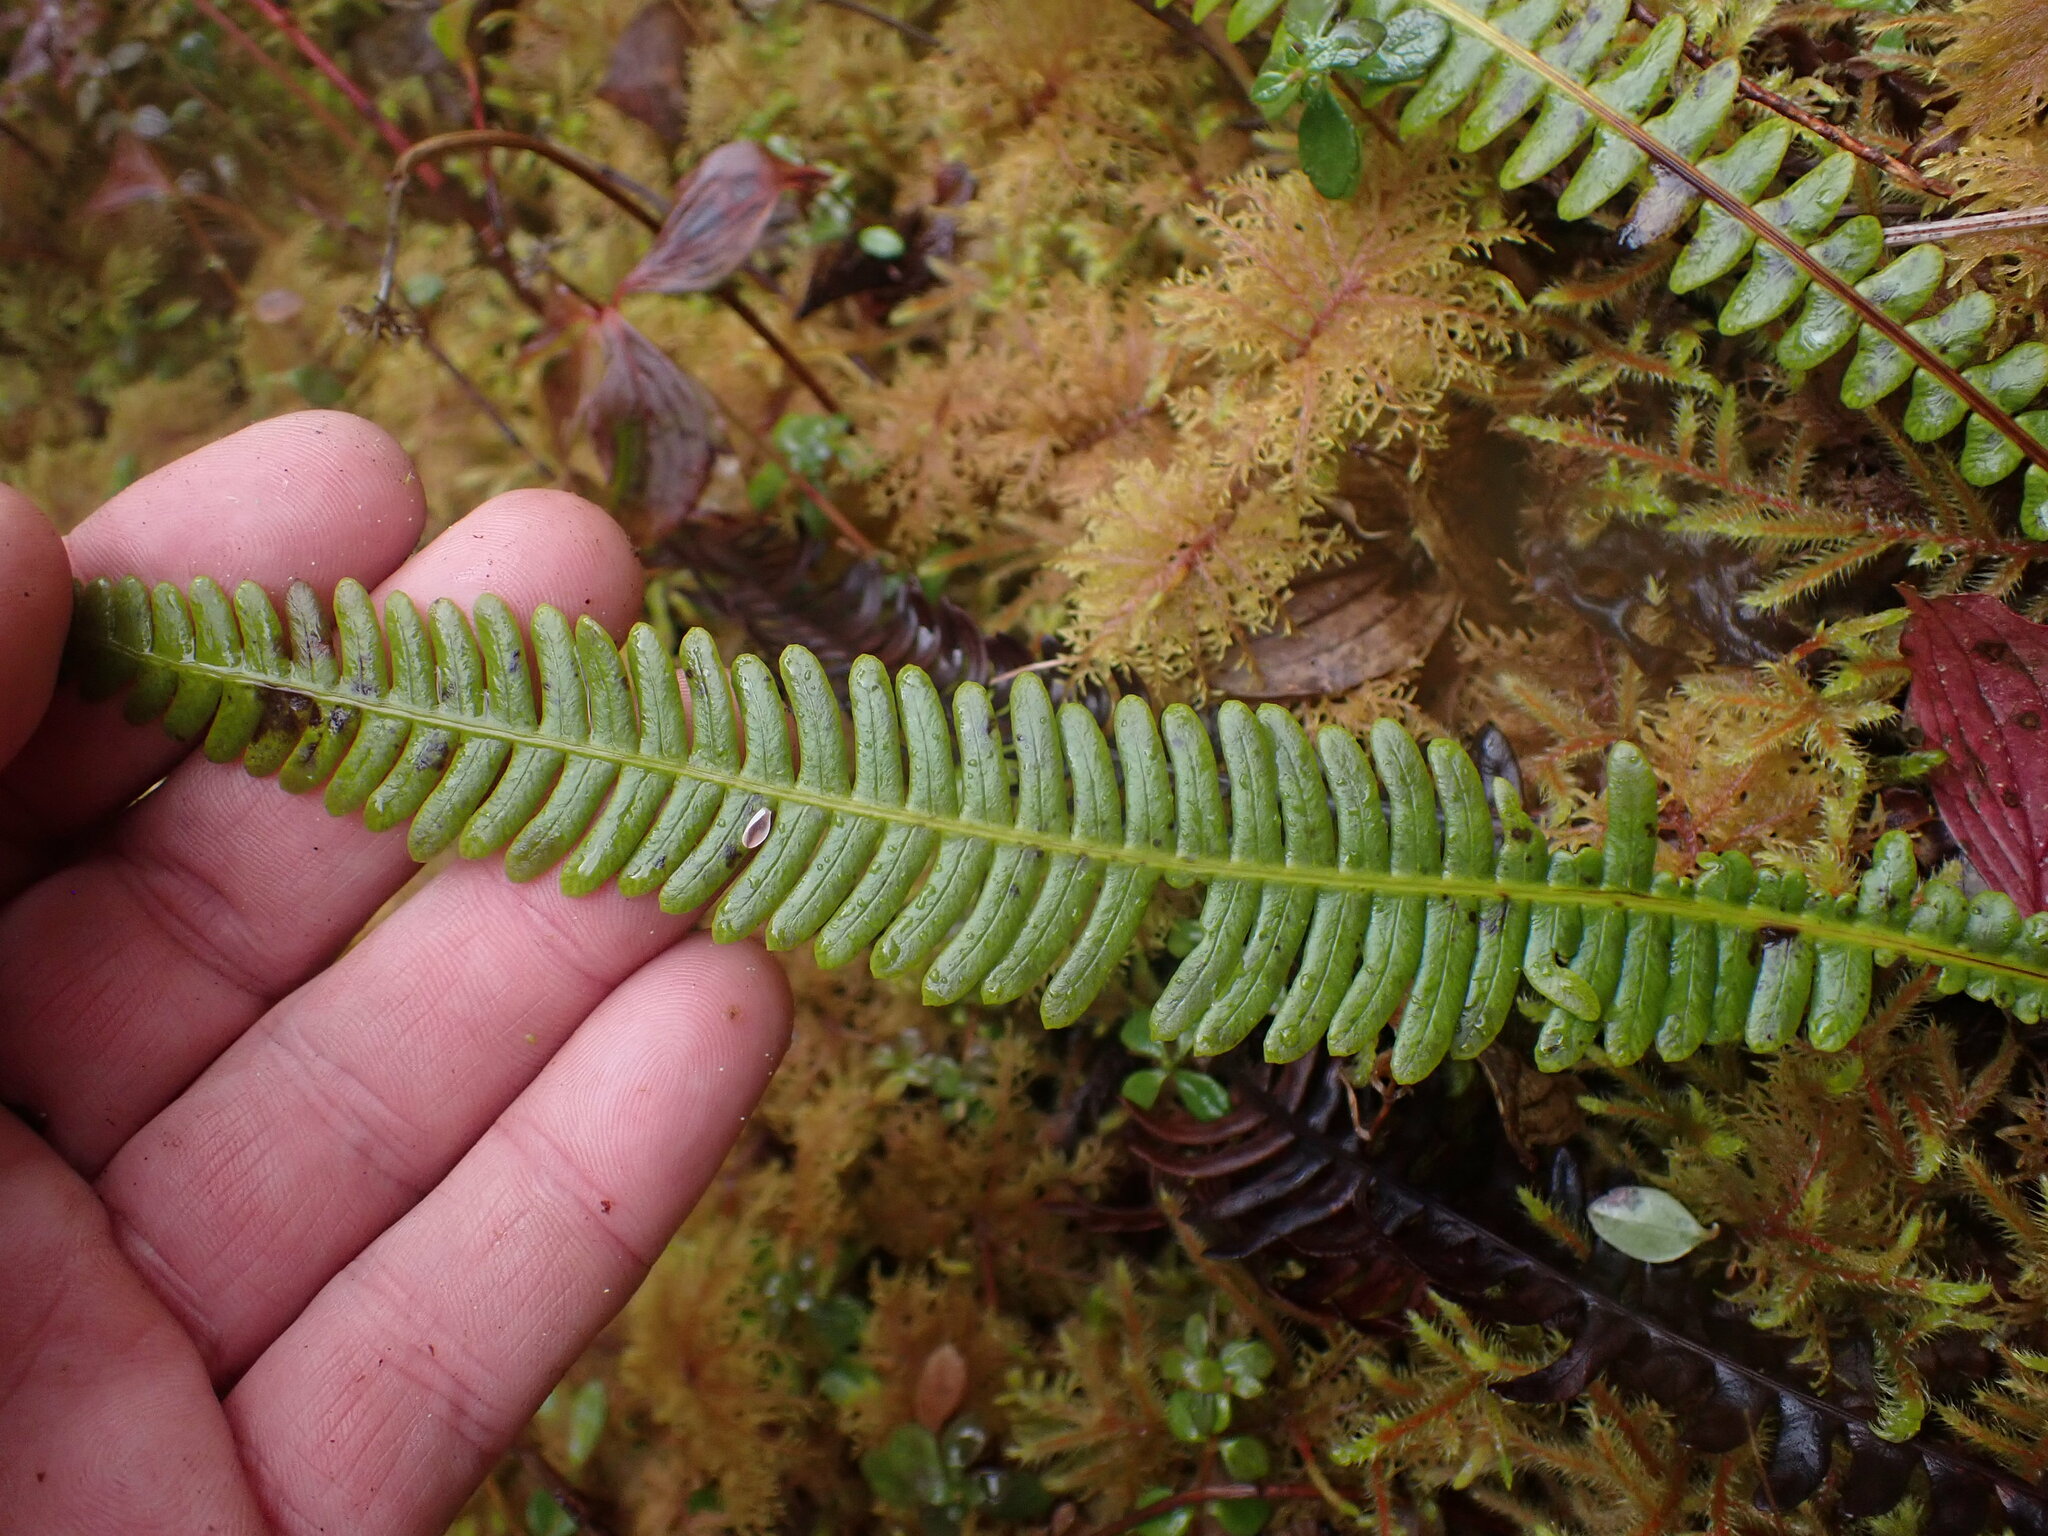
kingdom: Plantae
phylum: Tracheophyta
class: Polypodiopsida
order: Polypodiales
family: Blechnaceae
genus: Struthiopteris
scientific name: Struthiopteris spicant
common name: Deer fern
